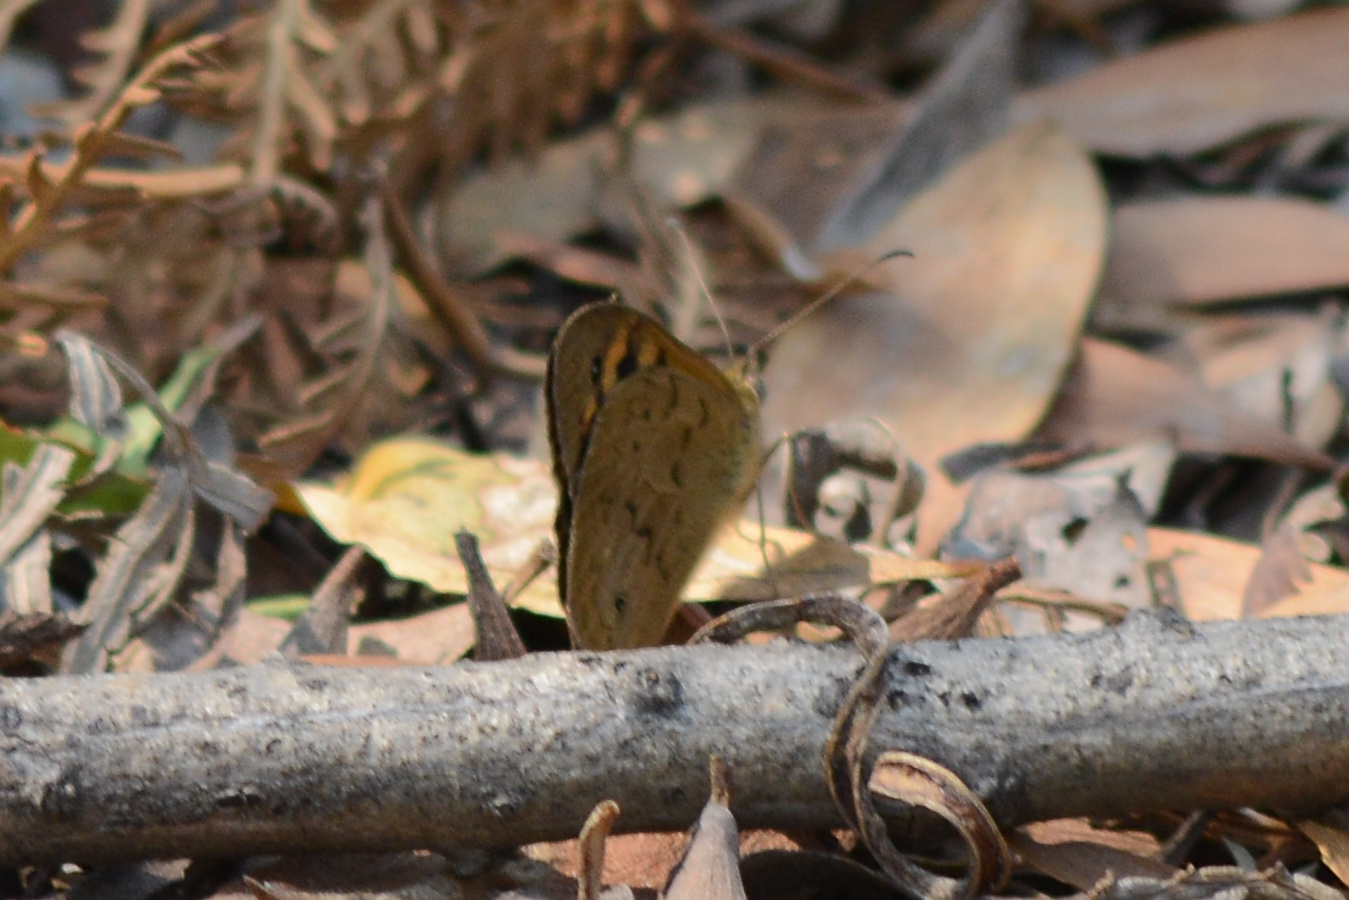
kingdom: Animalia
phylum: Arthropoda
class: Insecta
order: Lepidoptera
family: Nymphalidae
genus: Heteronympha
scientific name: Heteronympha merope
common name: Common brown
